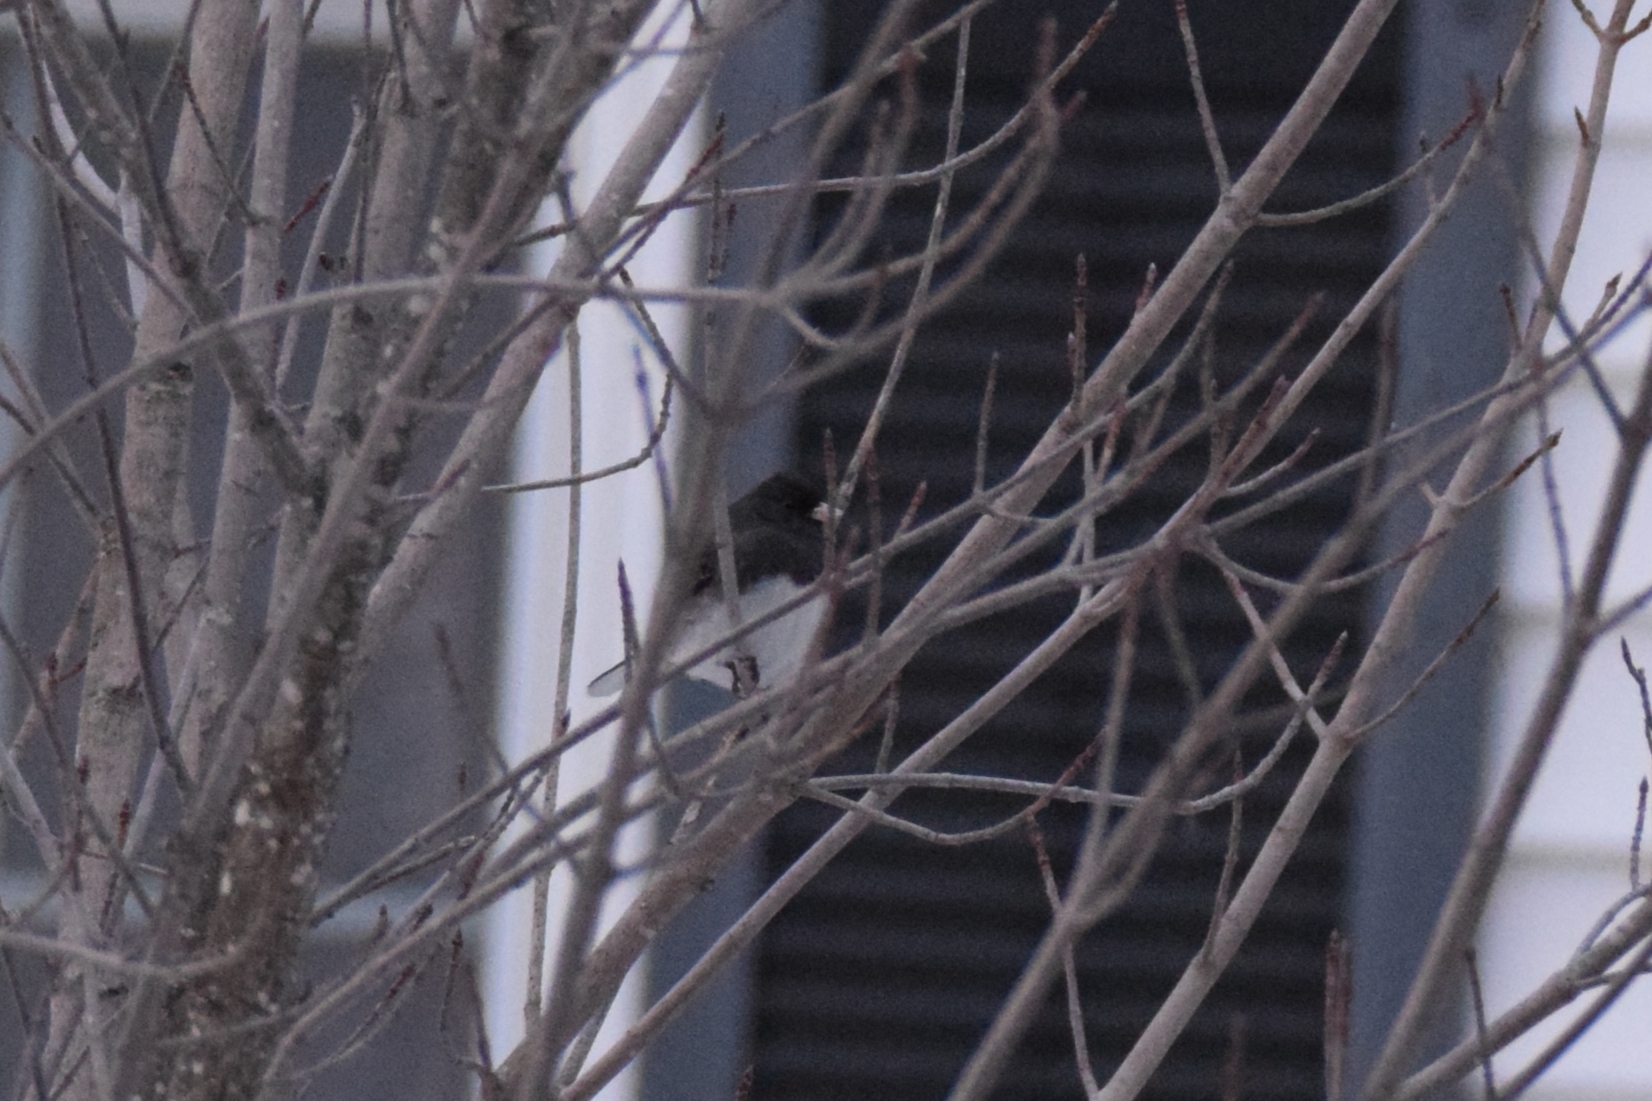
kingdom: Animalia
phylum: Chordata
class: Aves
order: Passeriformes
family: Passerellidae
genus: Junco
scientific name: Junco hyemalis
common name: Dark-eyed junco
